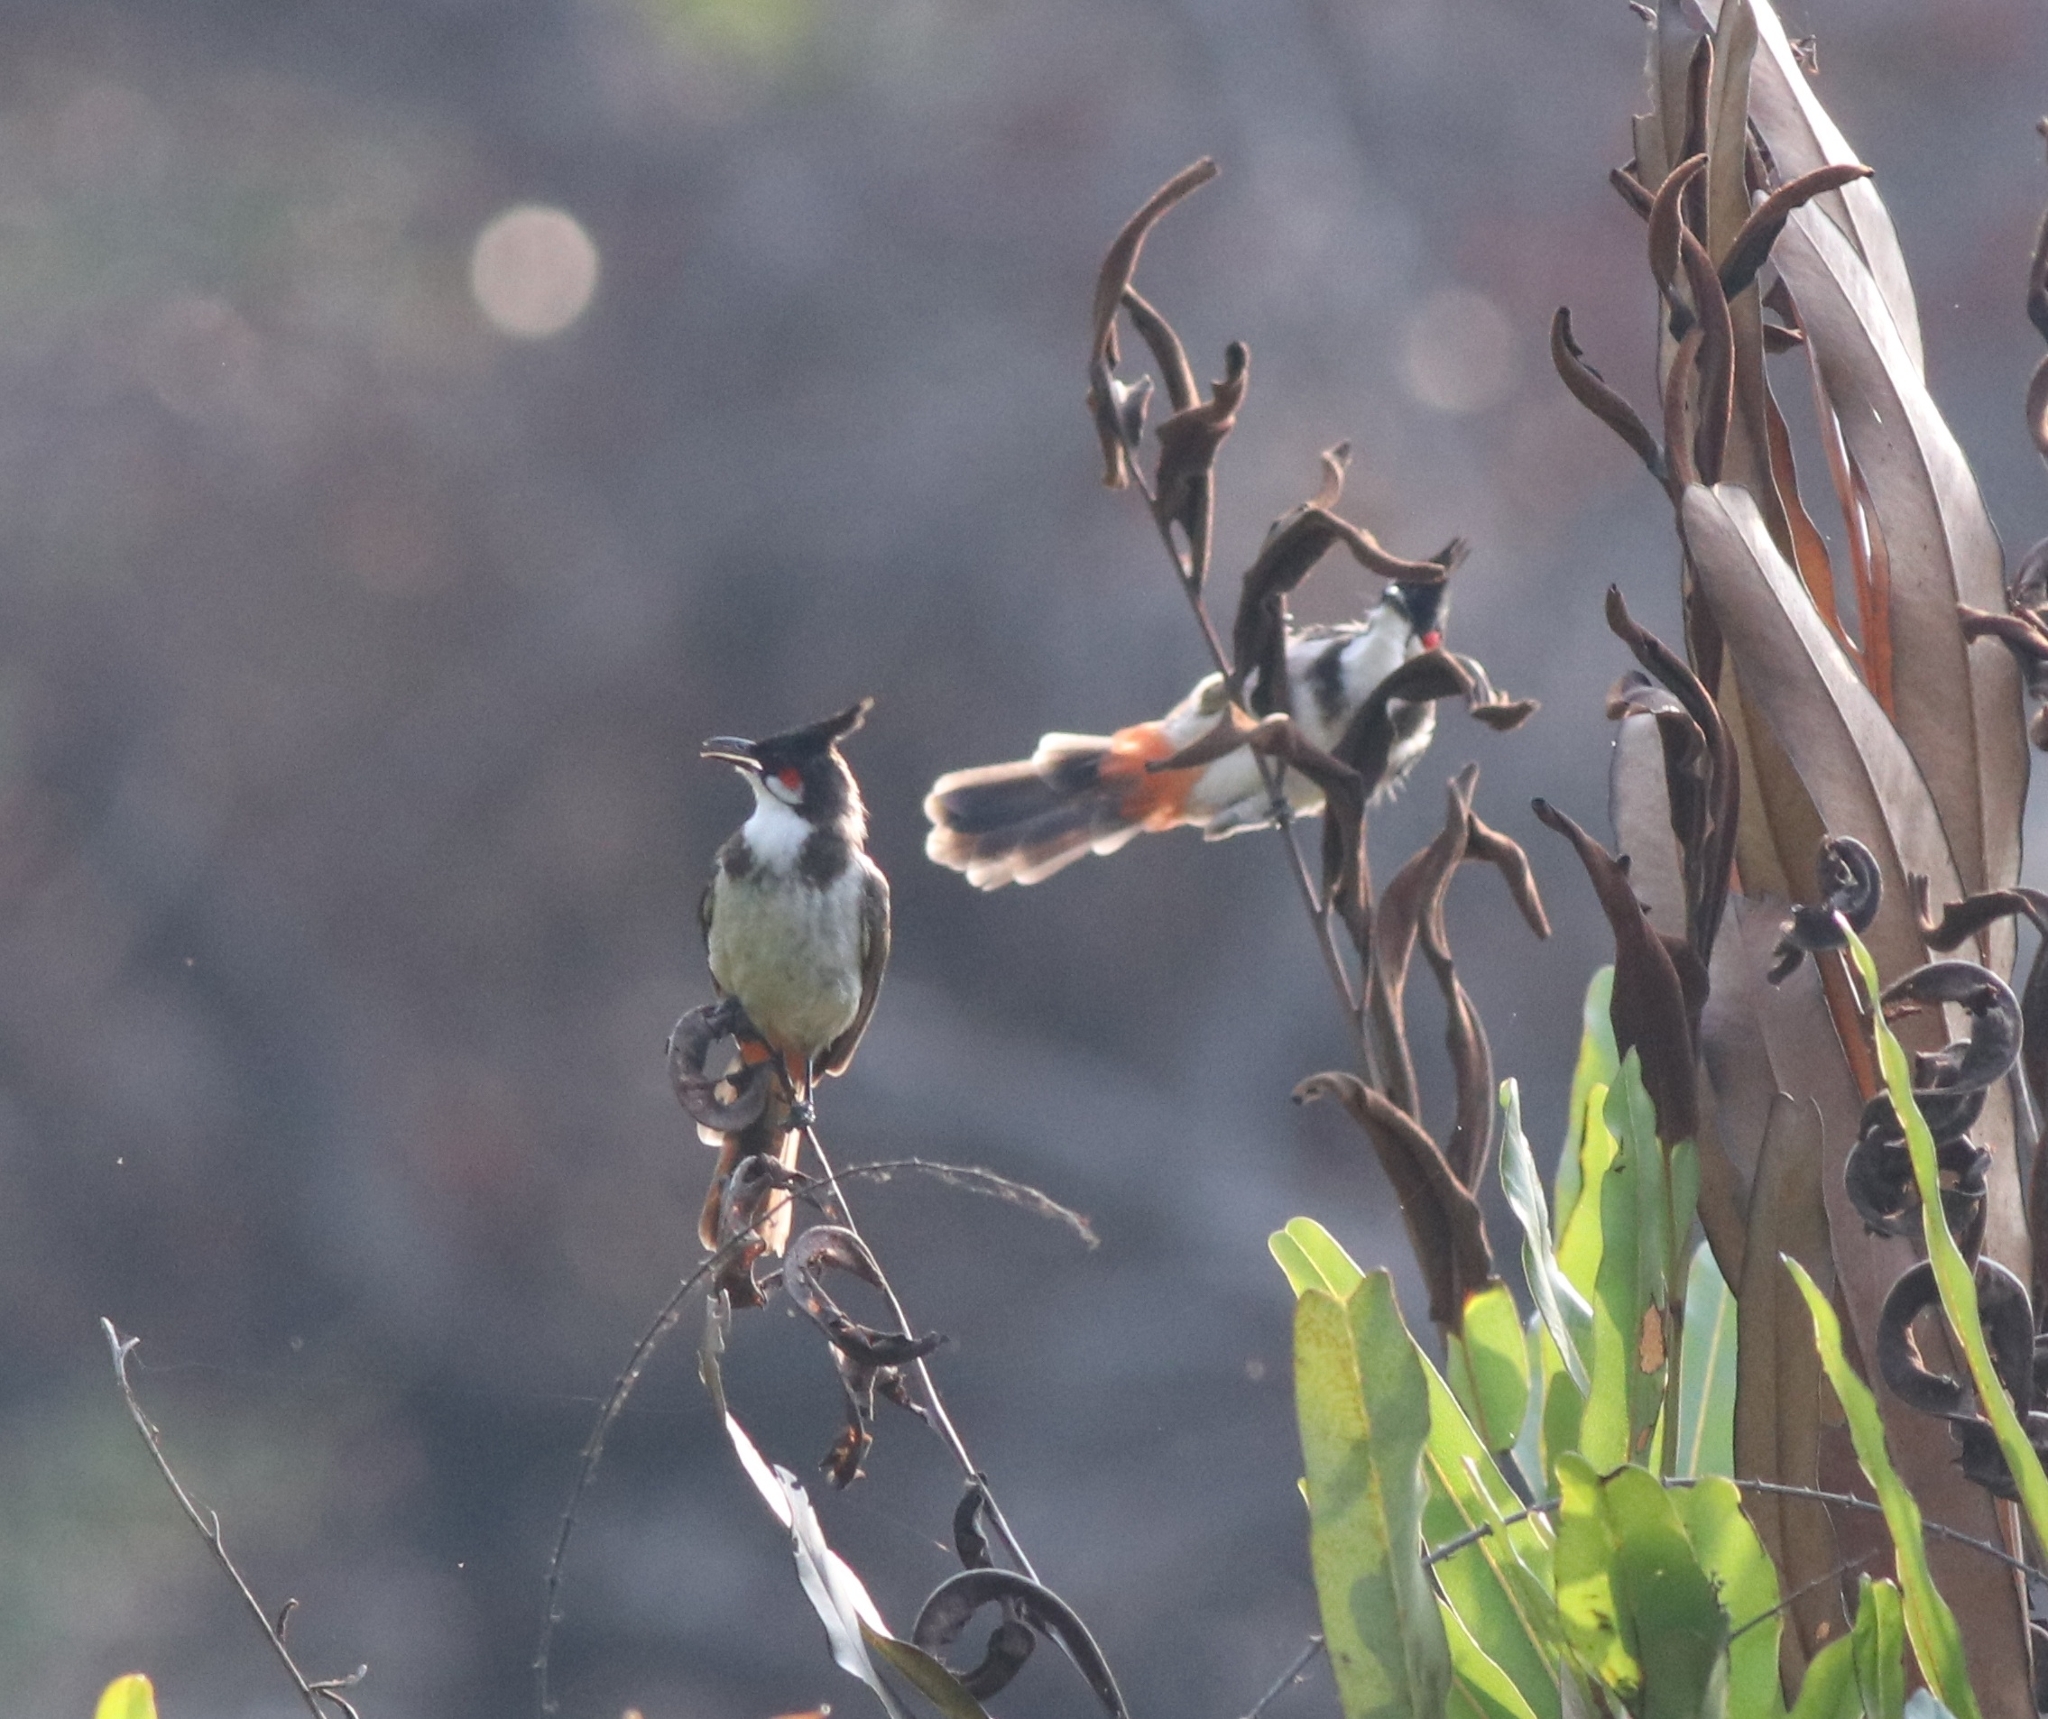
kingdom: Animalia
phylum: Chordata
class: Aves
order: Passeriformes
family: Pycnonotidae
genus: Pycnonotus
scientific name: Pycnonotus jocosus
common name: Red-whiskered bulbul
